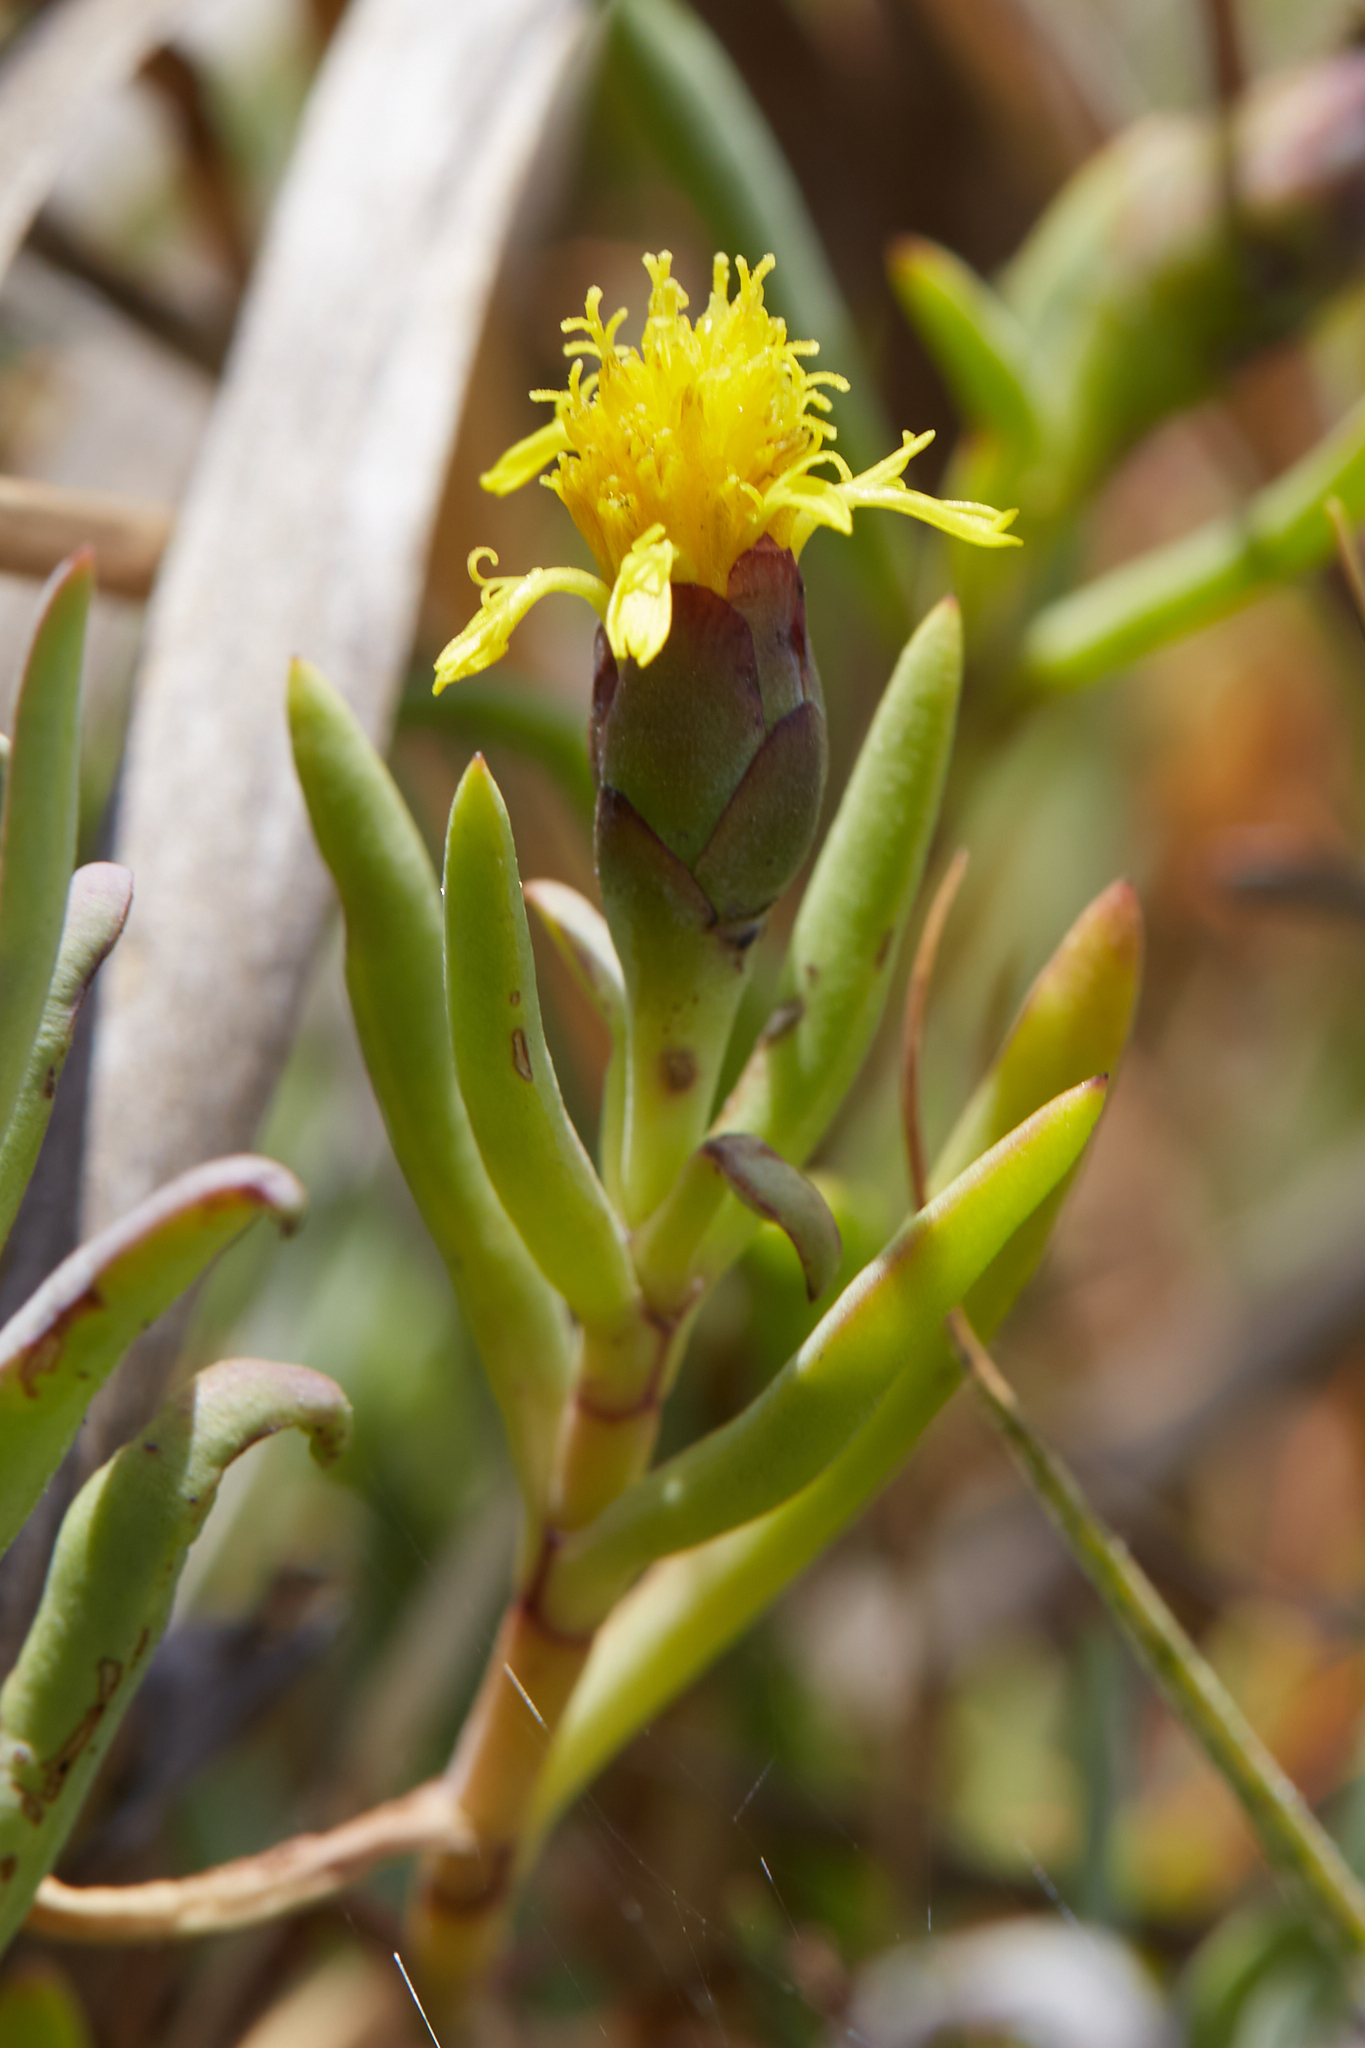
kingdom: Plantae
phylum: Tracheophyta
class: Magnoliopsida
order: Asterales
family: Asteraceae
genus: Jaumea
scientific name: Jaumea carnosa
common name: Fleshy jaumea
